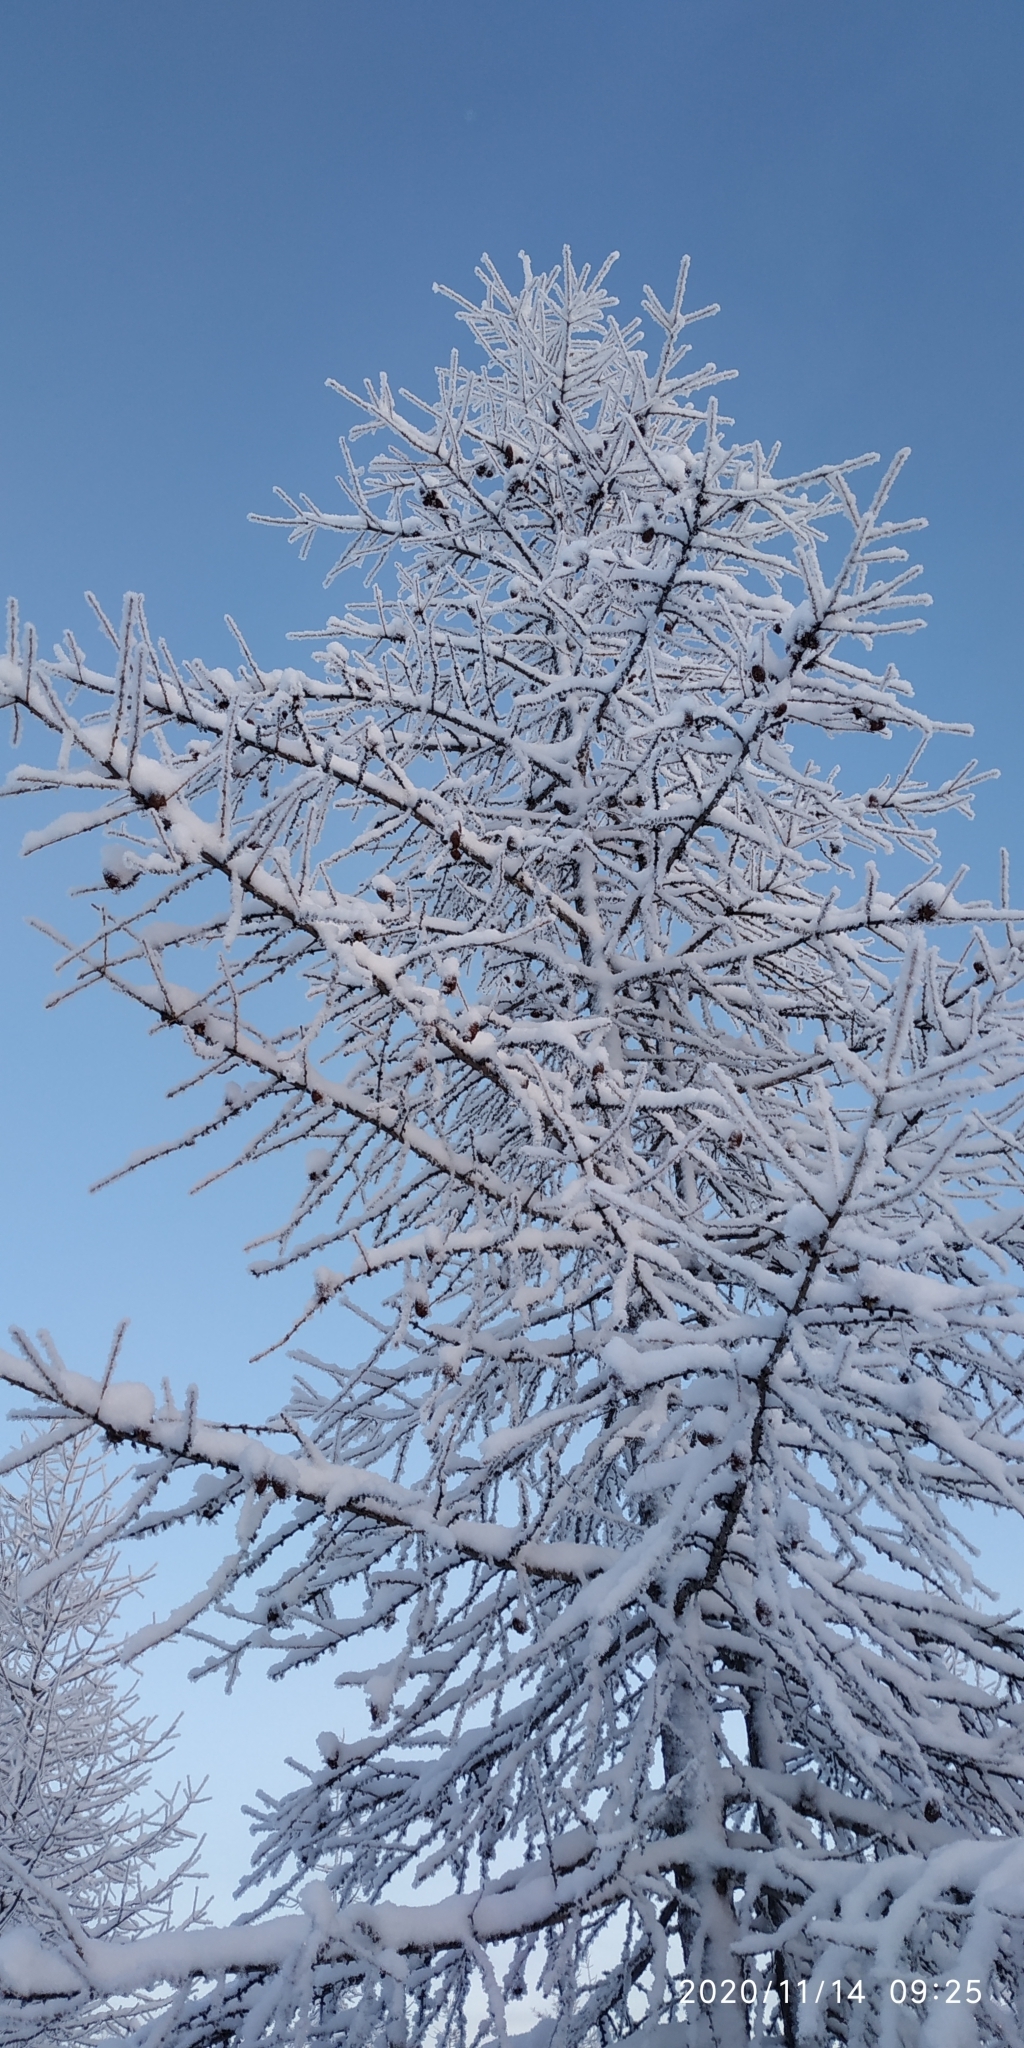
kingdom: Plantae
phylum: Tracheophyta
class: Pinopsida
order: Pinales
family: Pinaceae
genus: Larix
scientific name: Larix sibirica
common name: Siberian larch
